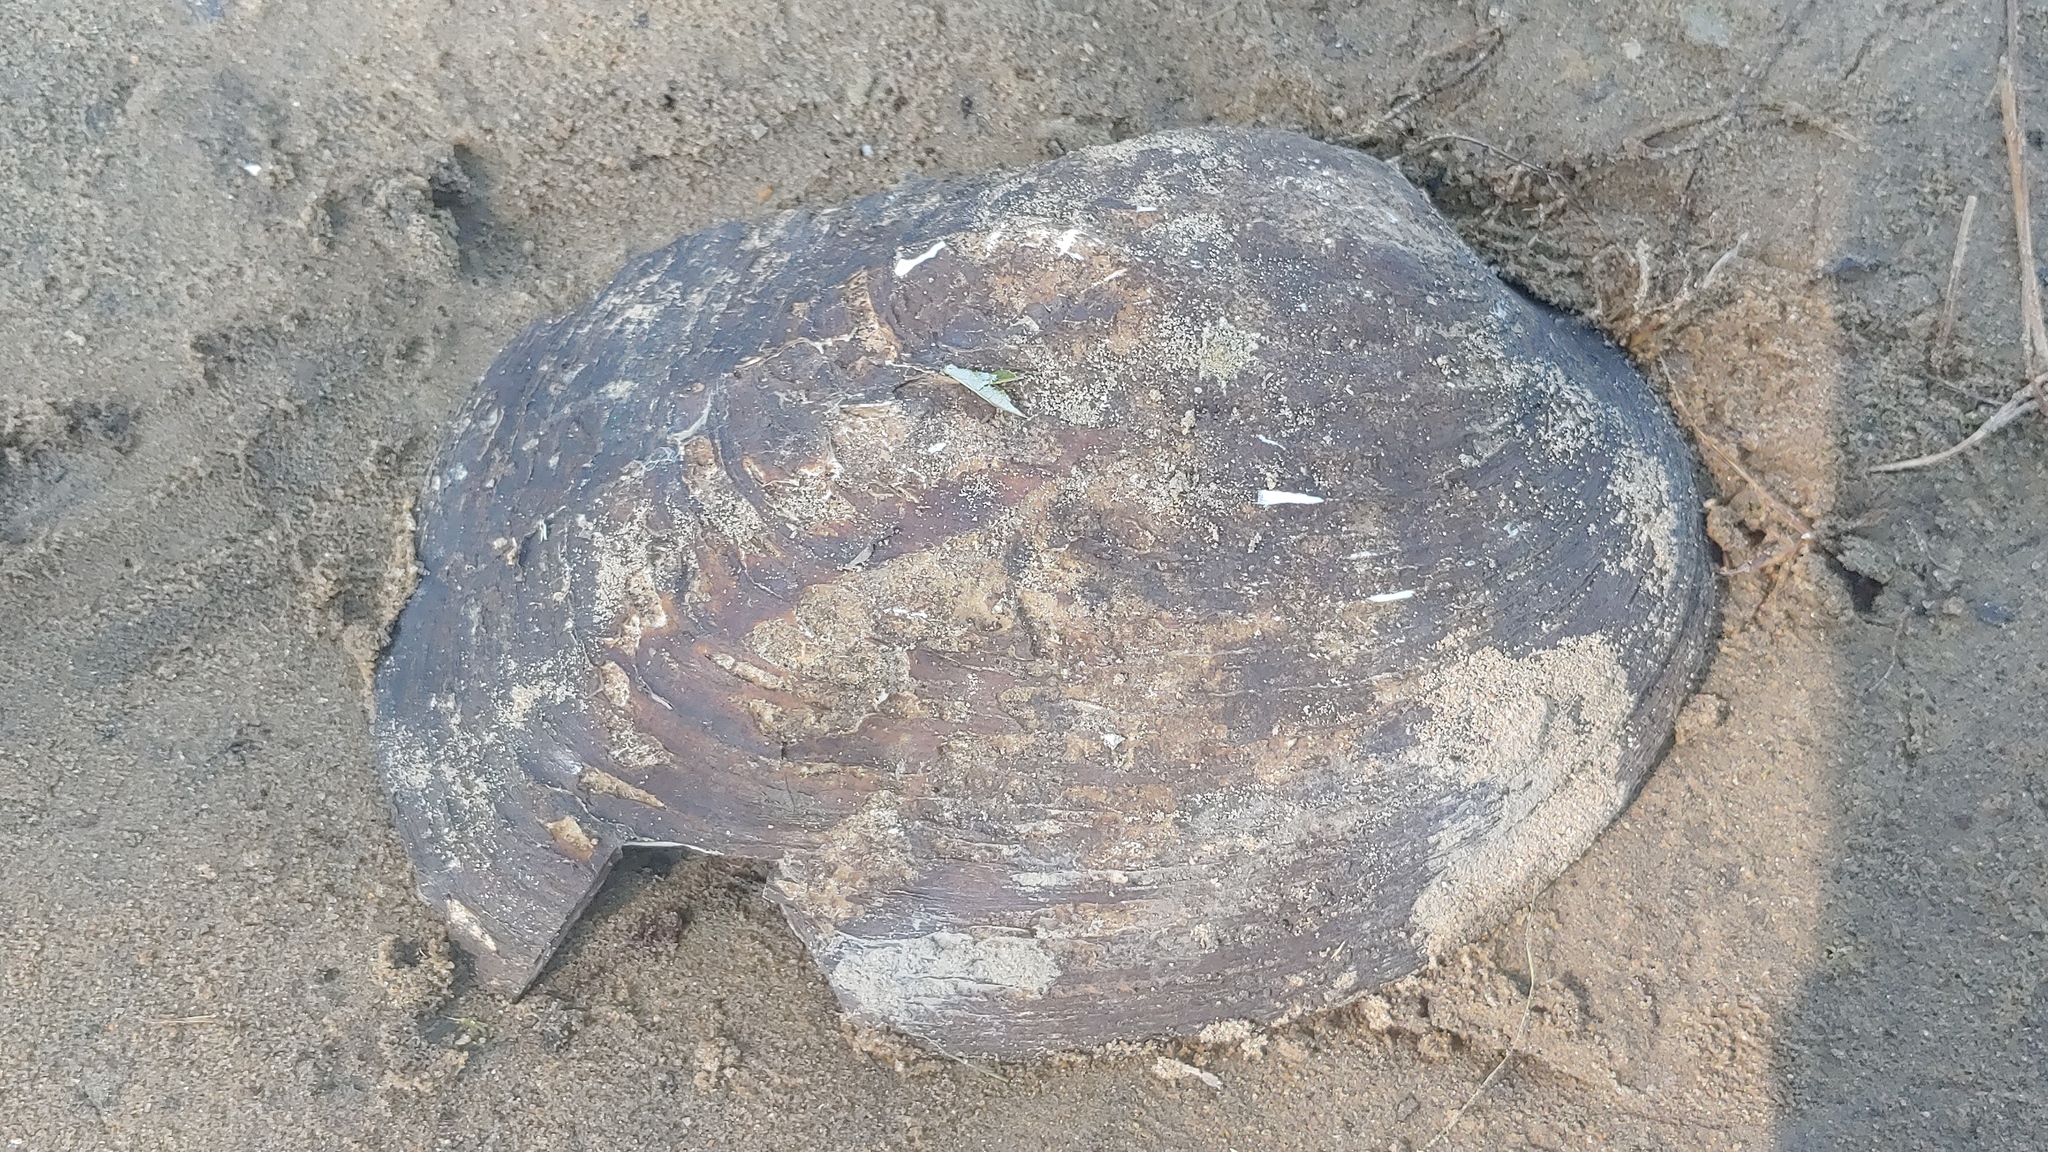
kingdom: Animalia
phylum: Mollusca
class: Bivalvia
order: Unionida
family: Unionidae
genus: Amblema
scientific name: Amblema plicata
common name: Threeridge
